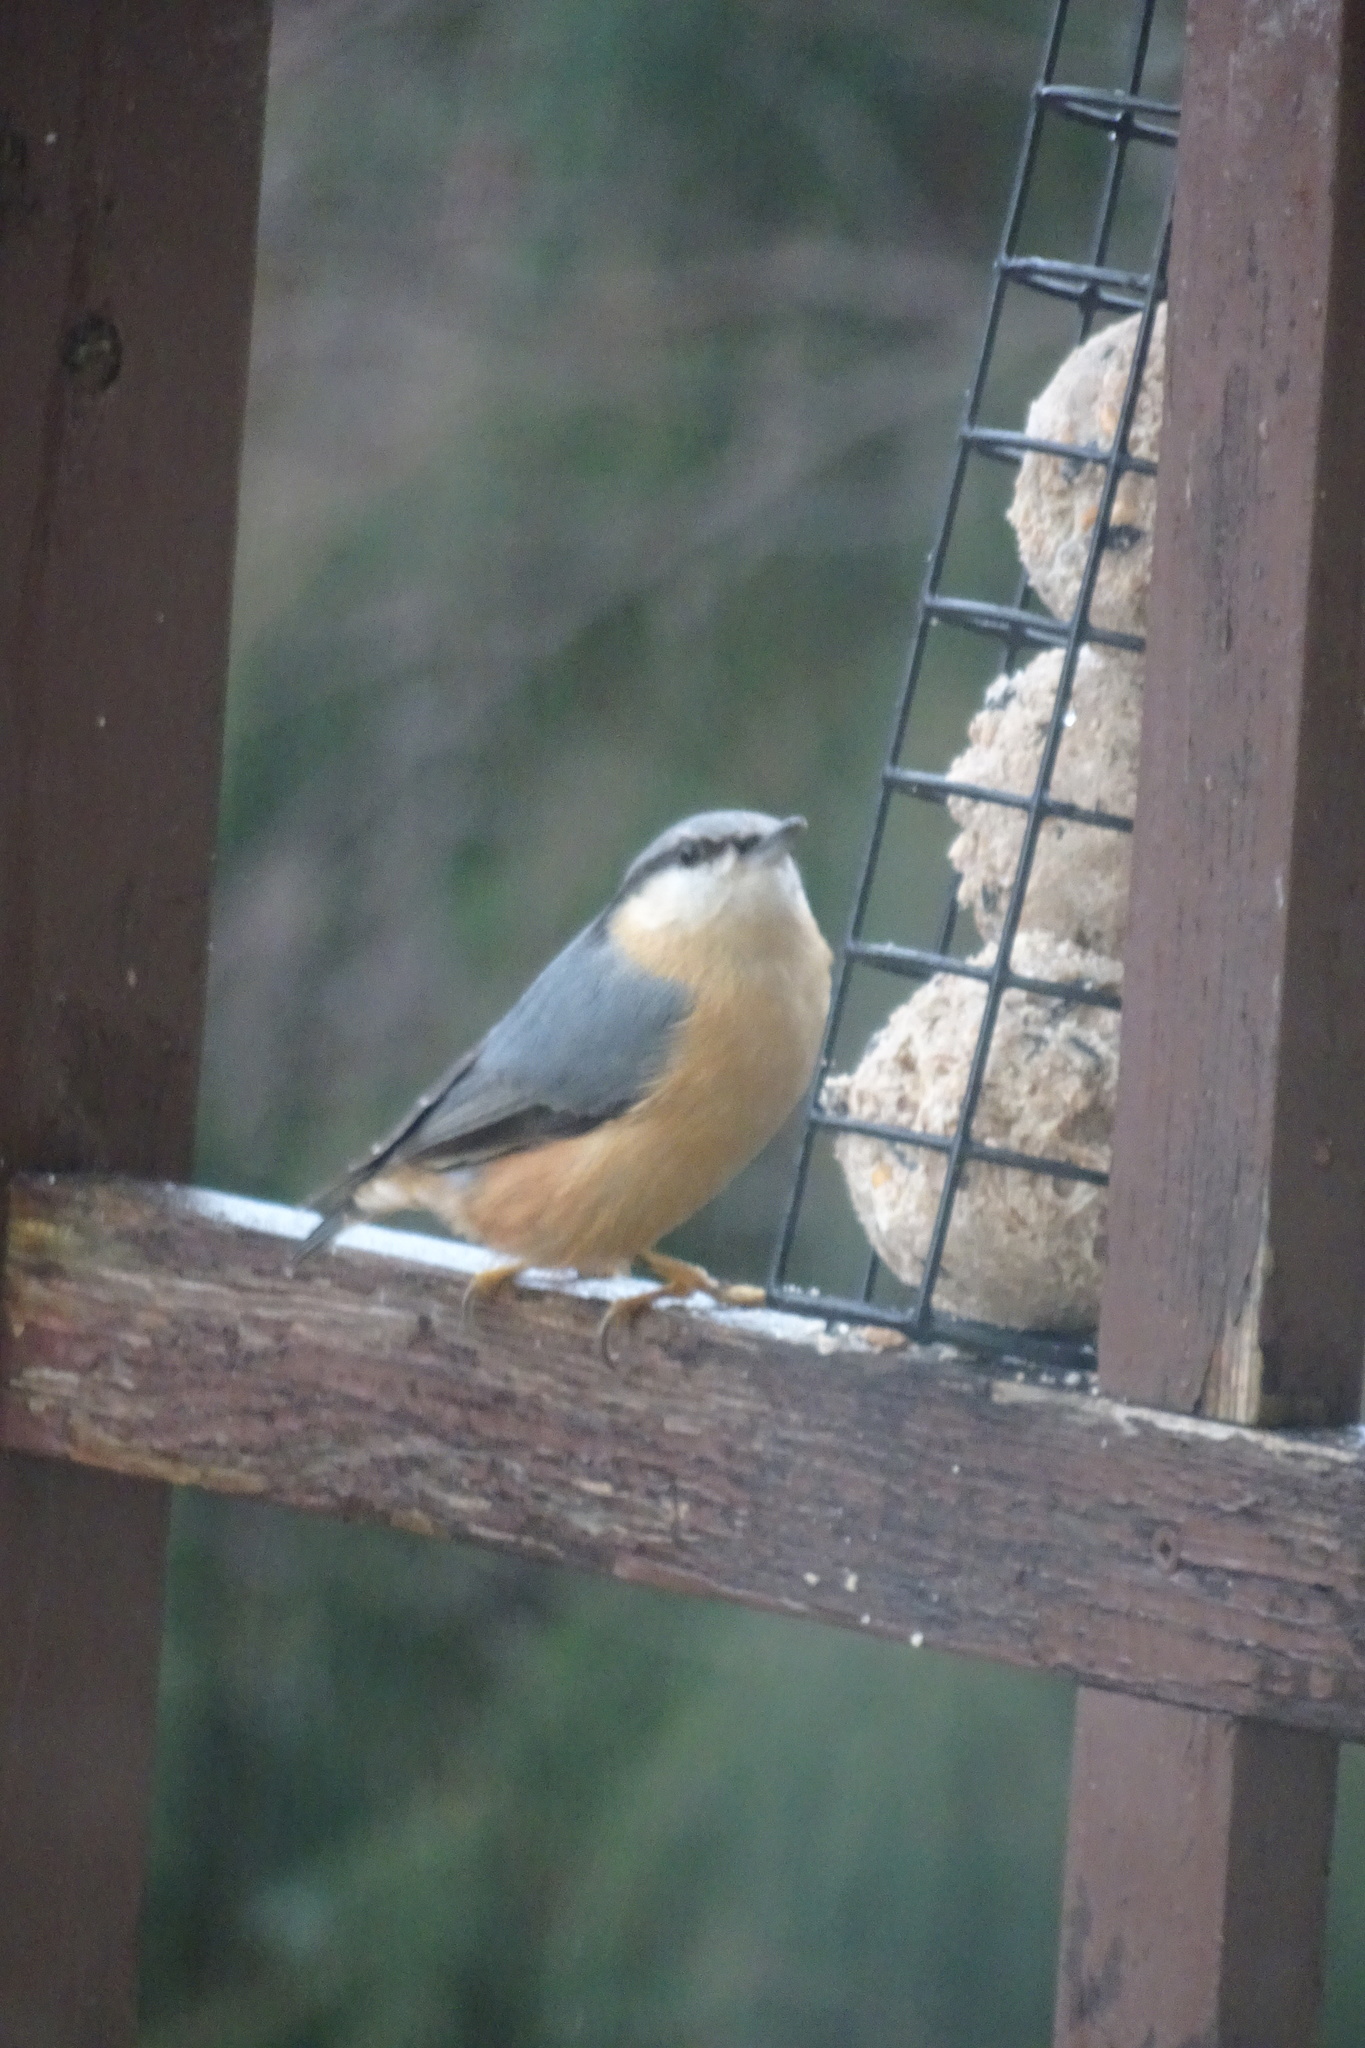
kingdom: Animalia
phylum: Chordata
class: Aves
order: Passeriformes
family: Sittidae
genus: Sitta
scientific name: Sitta europaea
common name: Eurasian nuthatch
